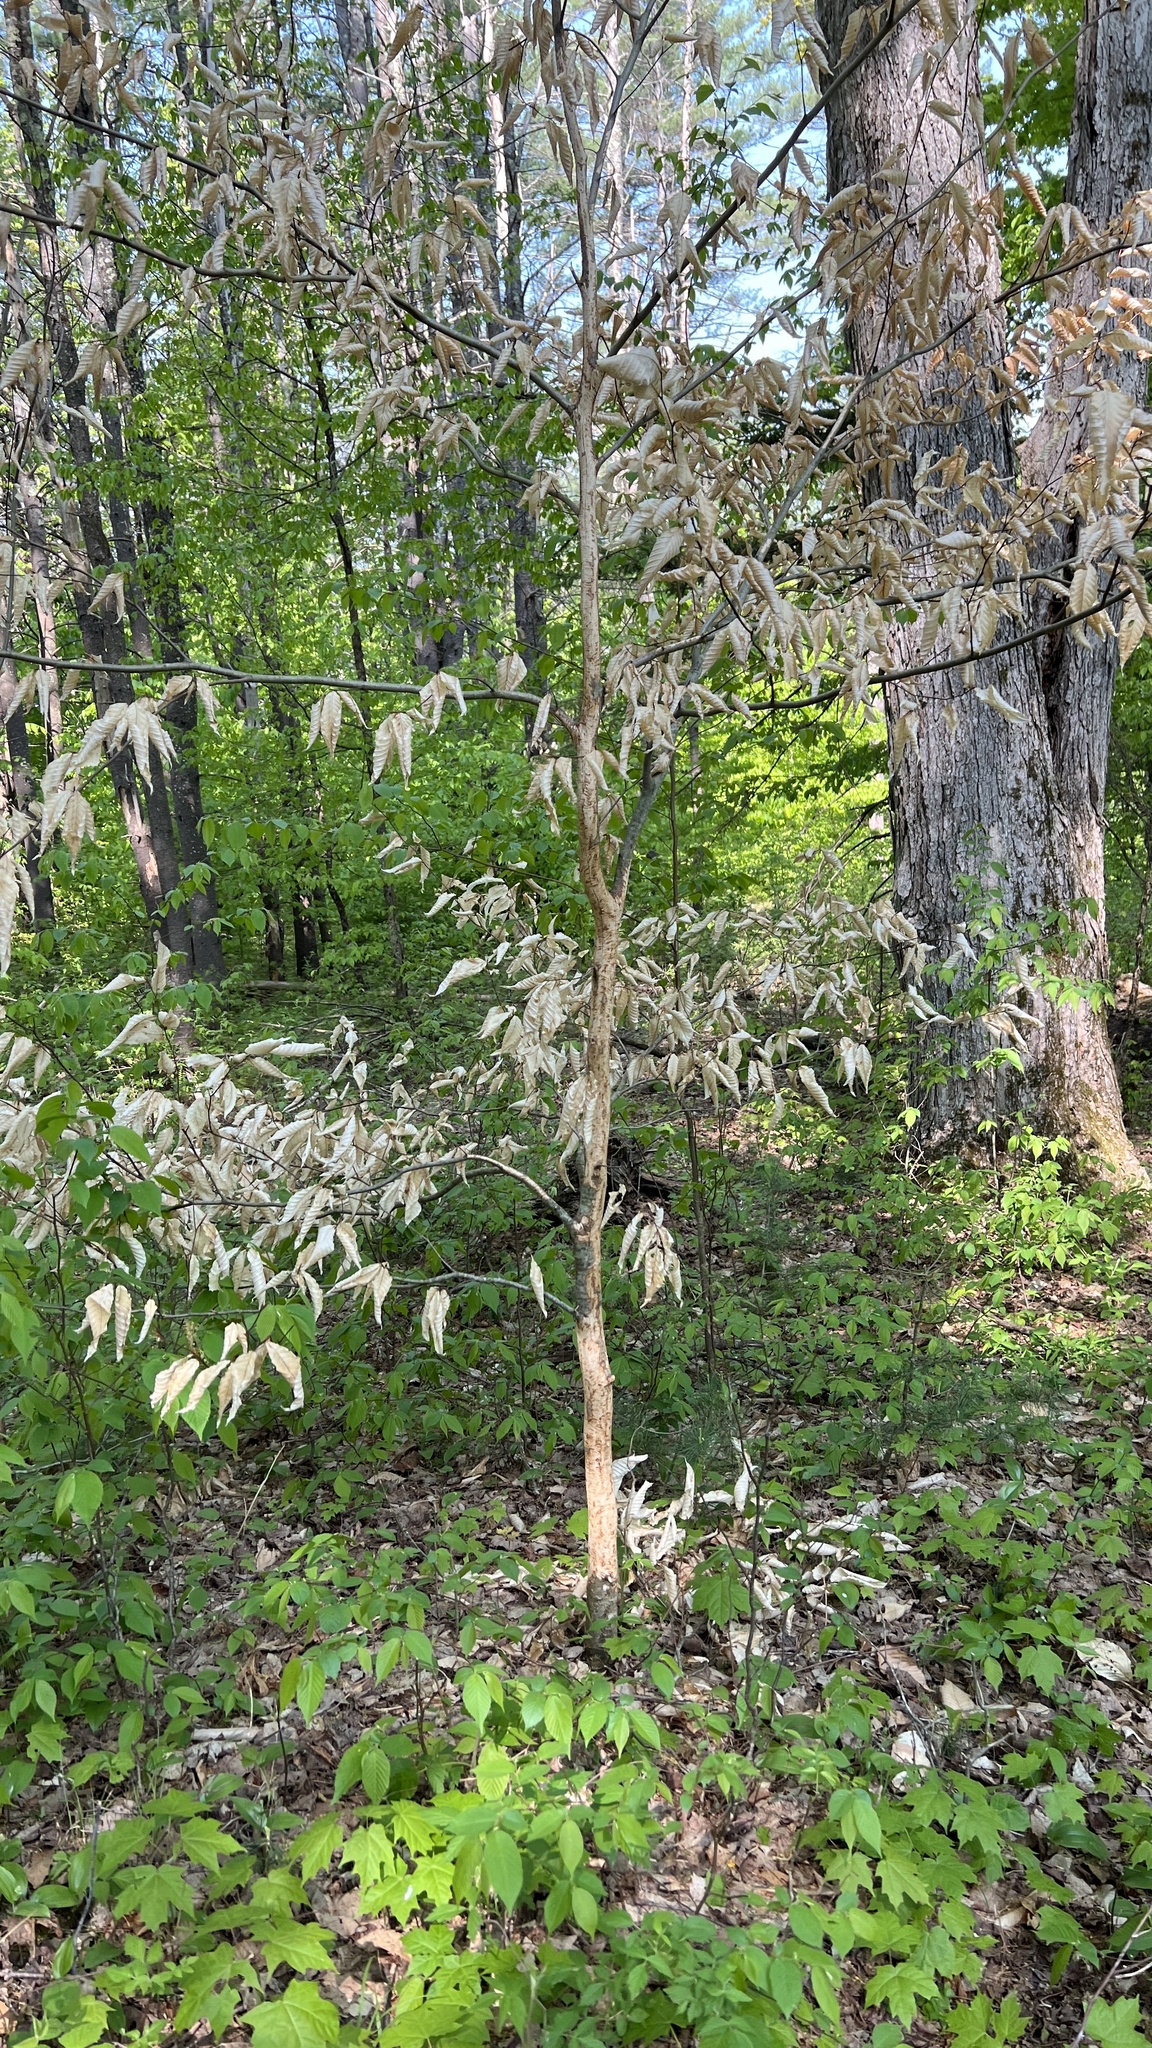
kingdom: Animalia
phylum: Chordata
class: Mammalia
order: Rodentia
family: Erethizontidae
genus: Erethizon
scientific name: Erethizon dorsatus
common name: North american porcupine
